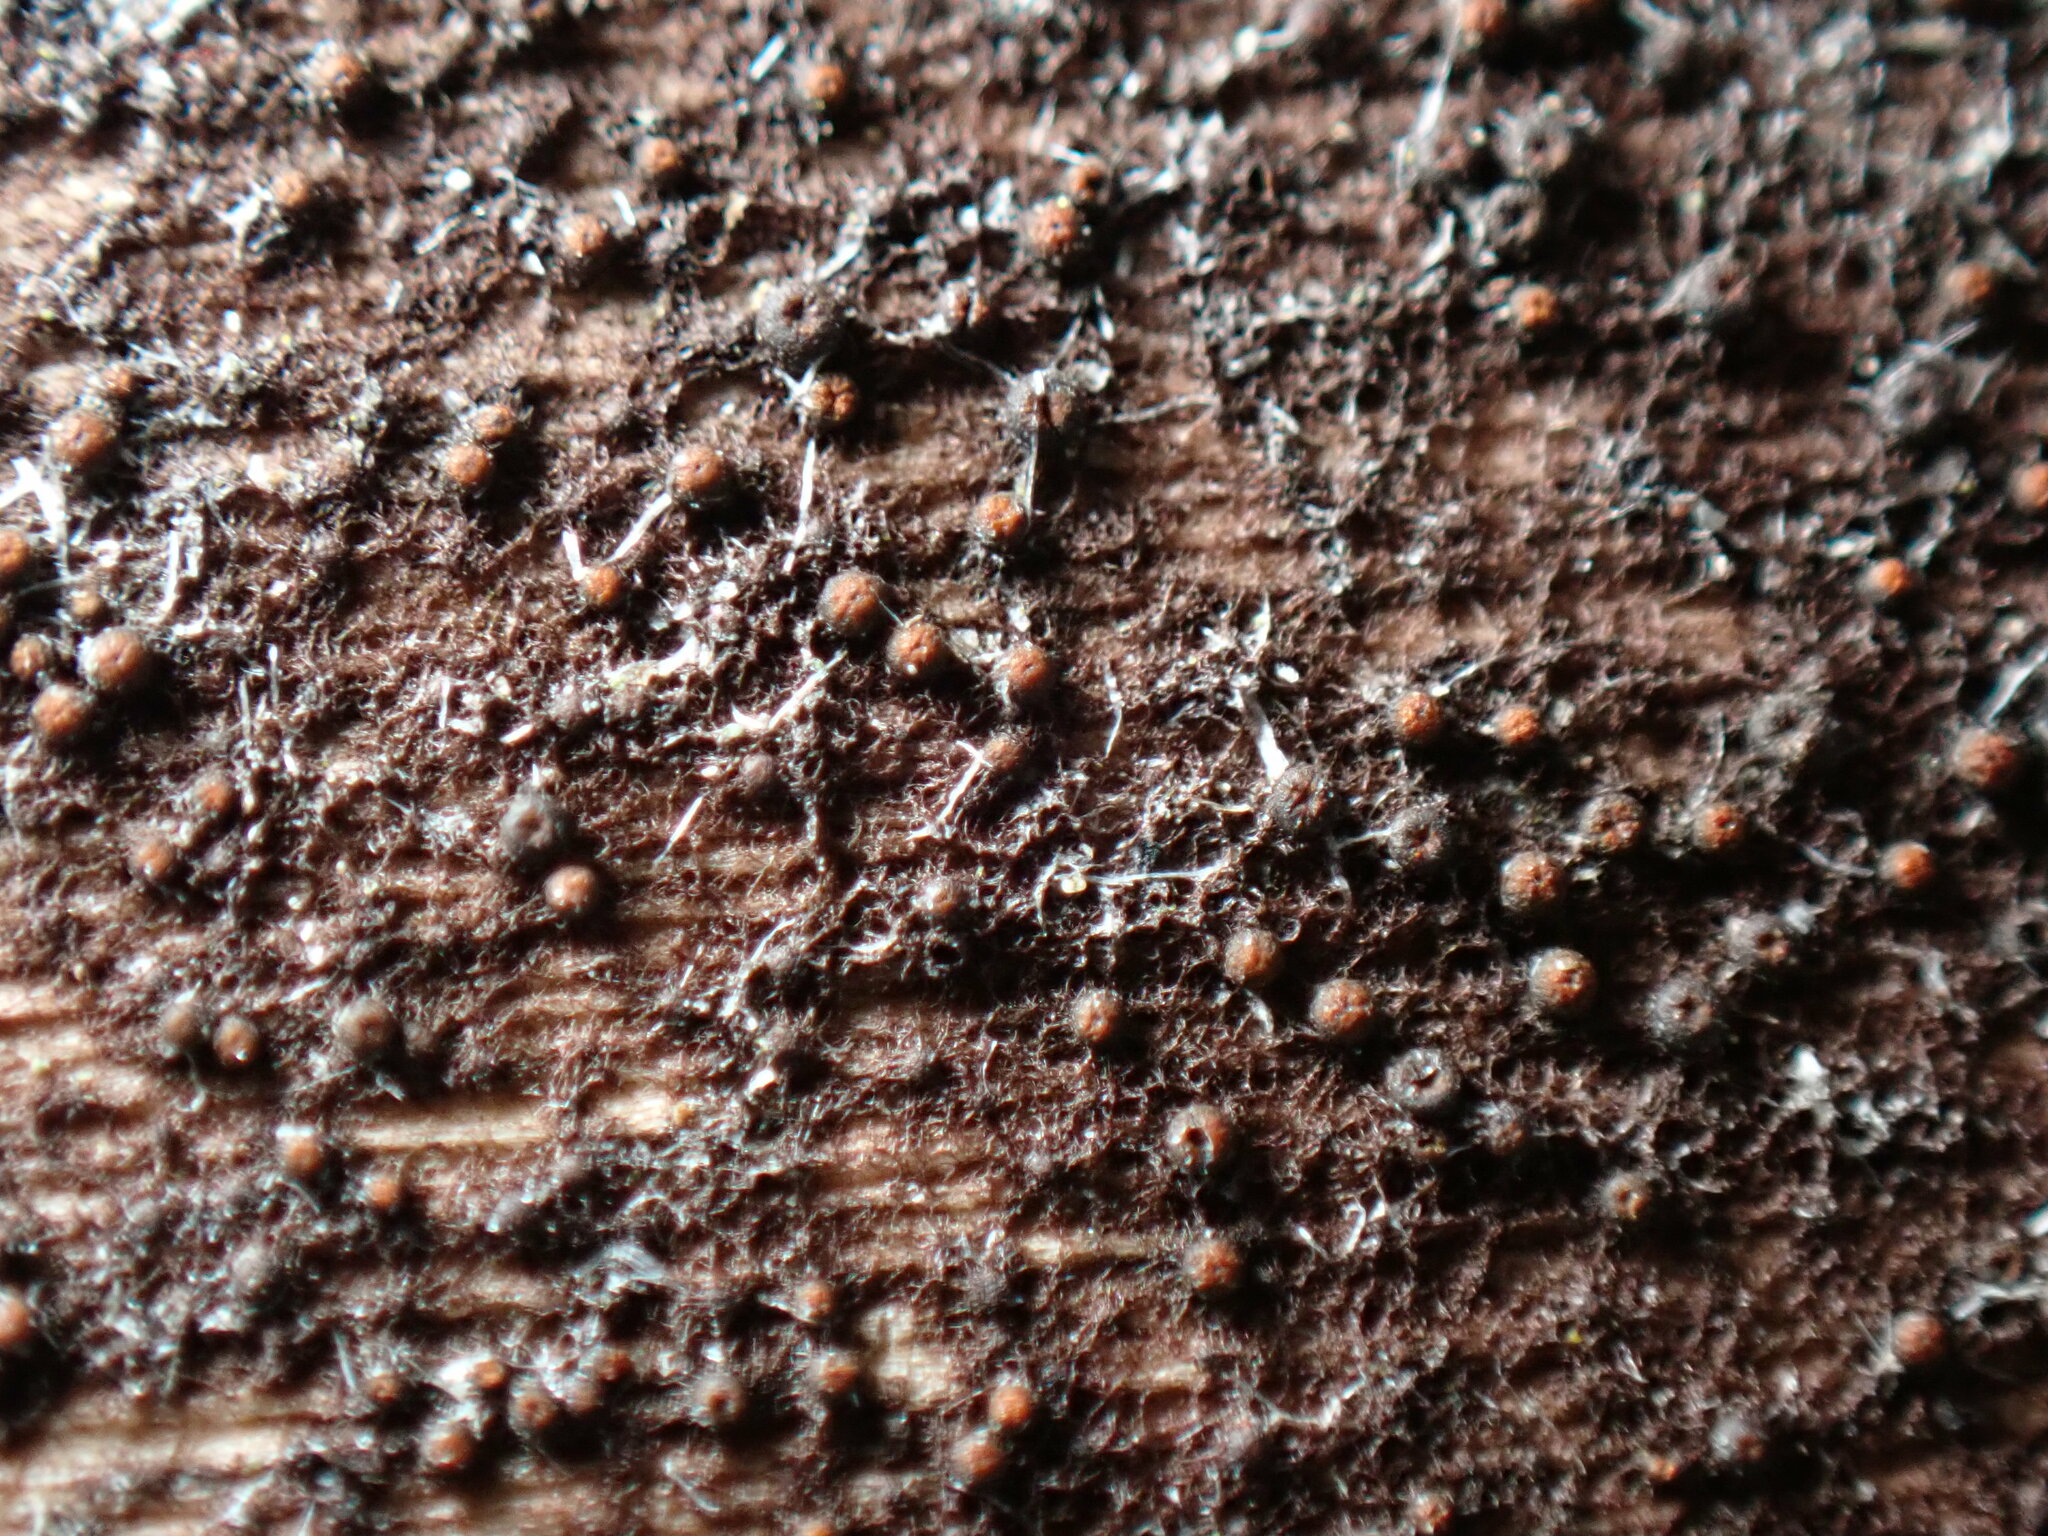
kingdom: Fungi
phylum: Ascomycota
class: Dothideomycetes
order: Pleosporales
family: Melanommataceae
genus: Byssosphaeria
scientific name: Byssosphaeria rhodomphala
